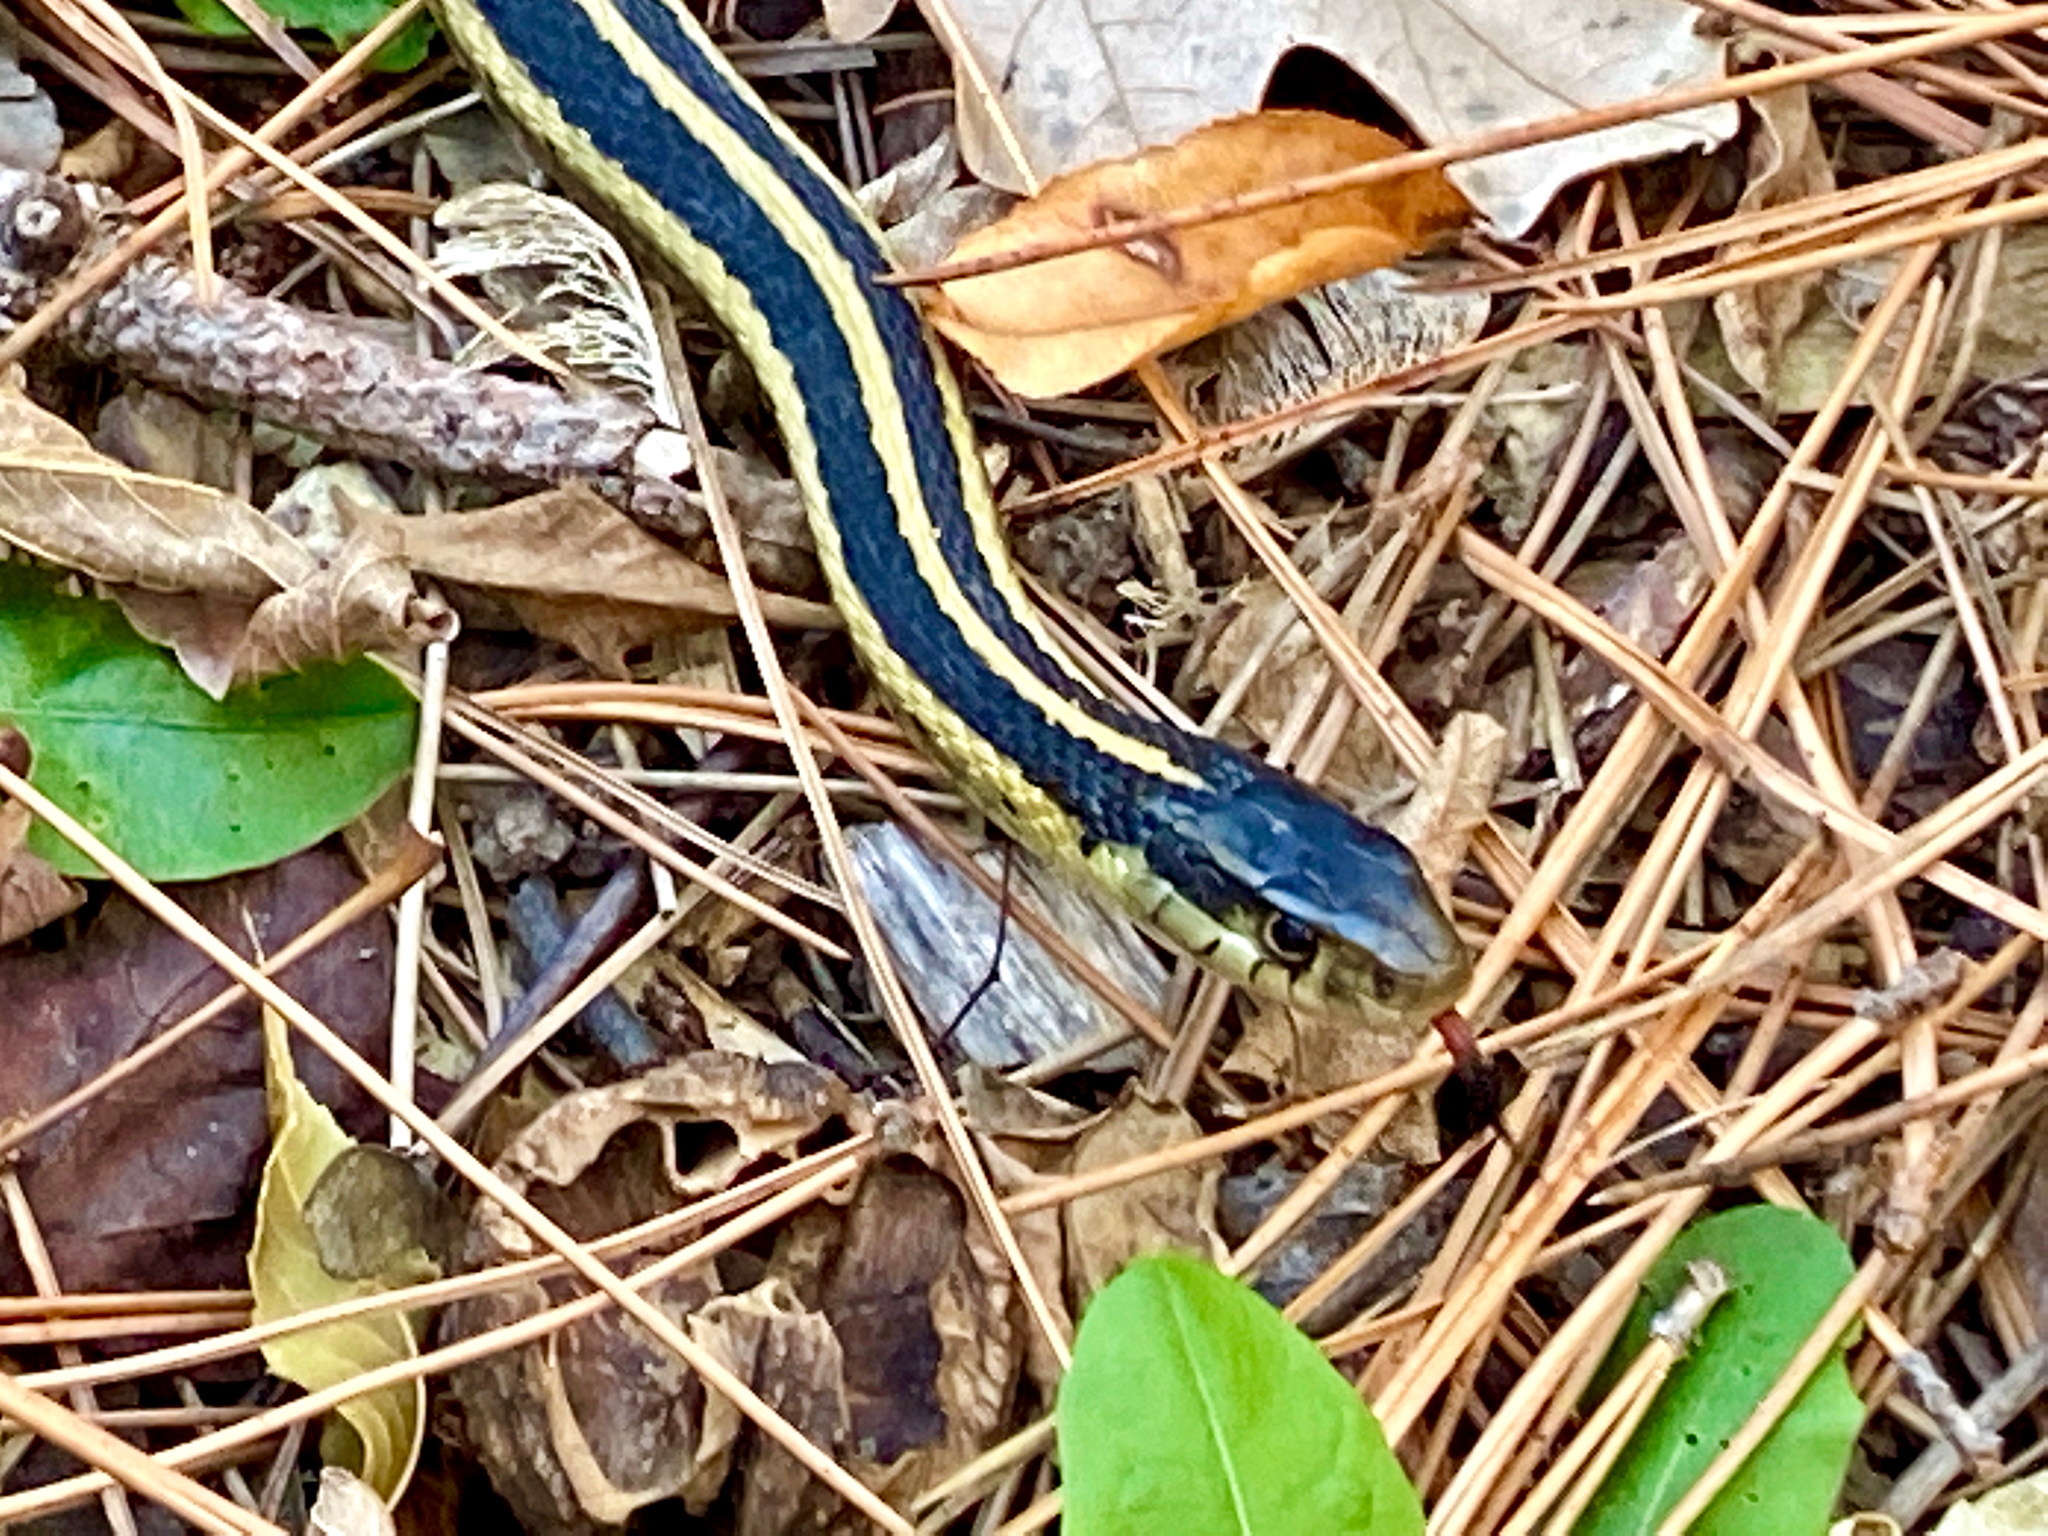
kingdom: Animalia
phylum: Chordata
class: Squamata
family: Colubridae
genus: Thamnophis
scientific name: Thamnophis sirtalis
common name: Common garter snake
